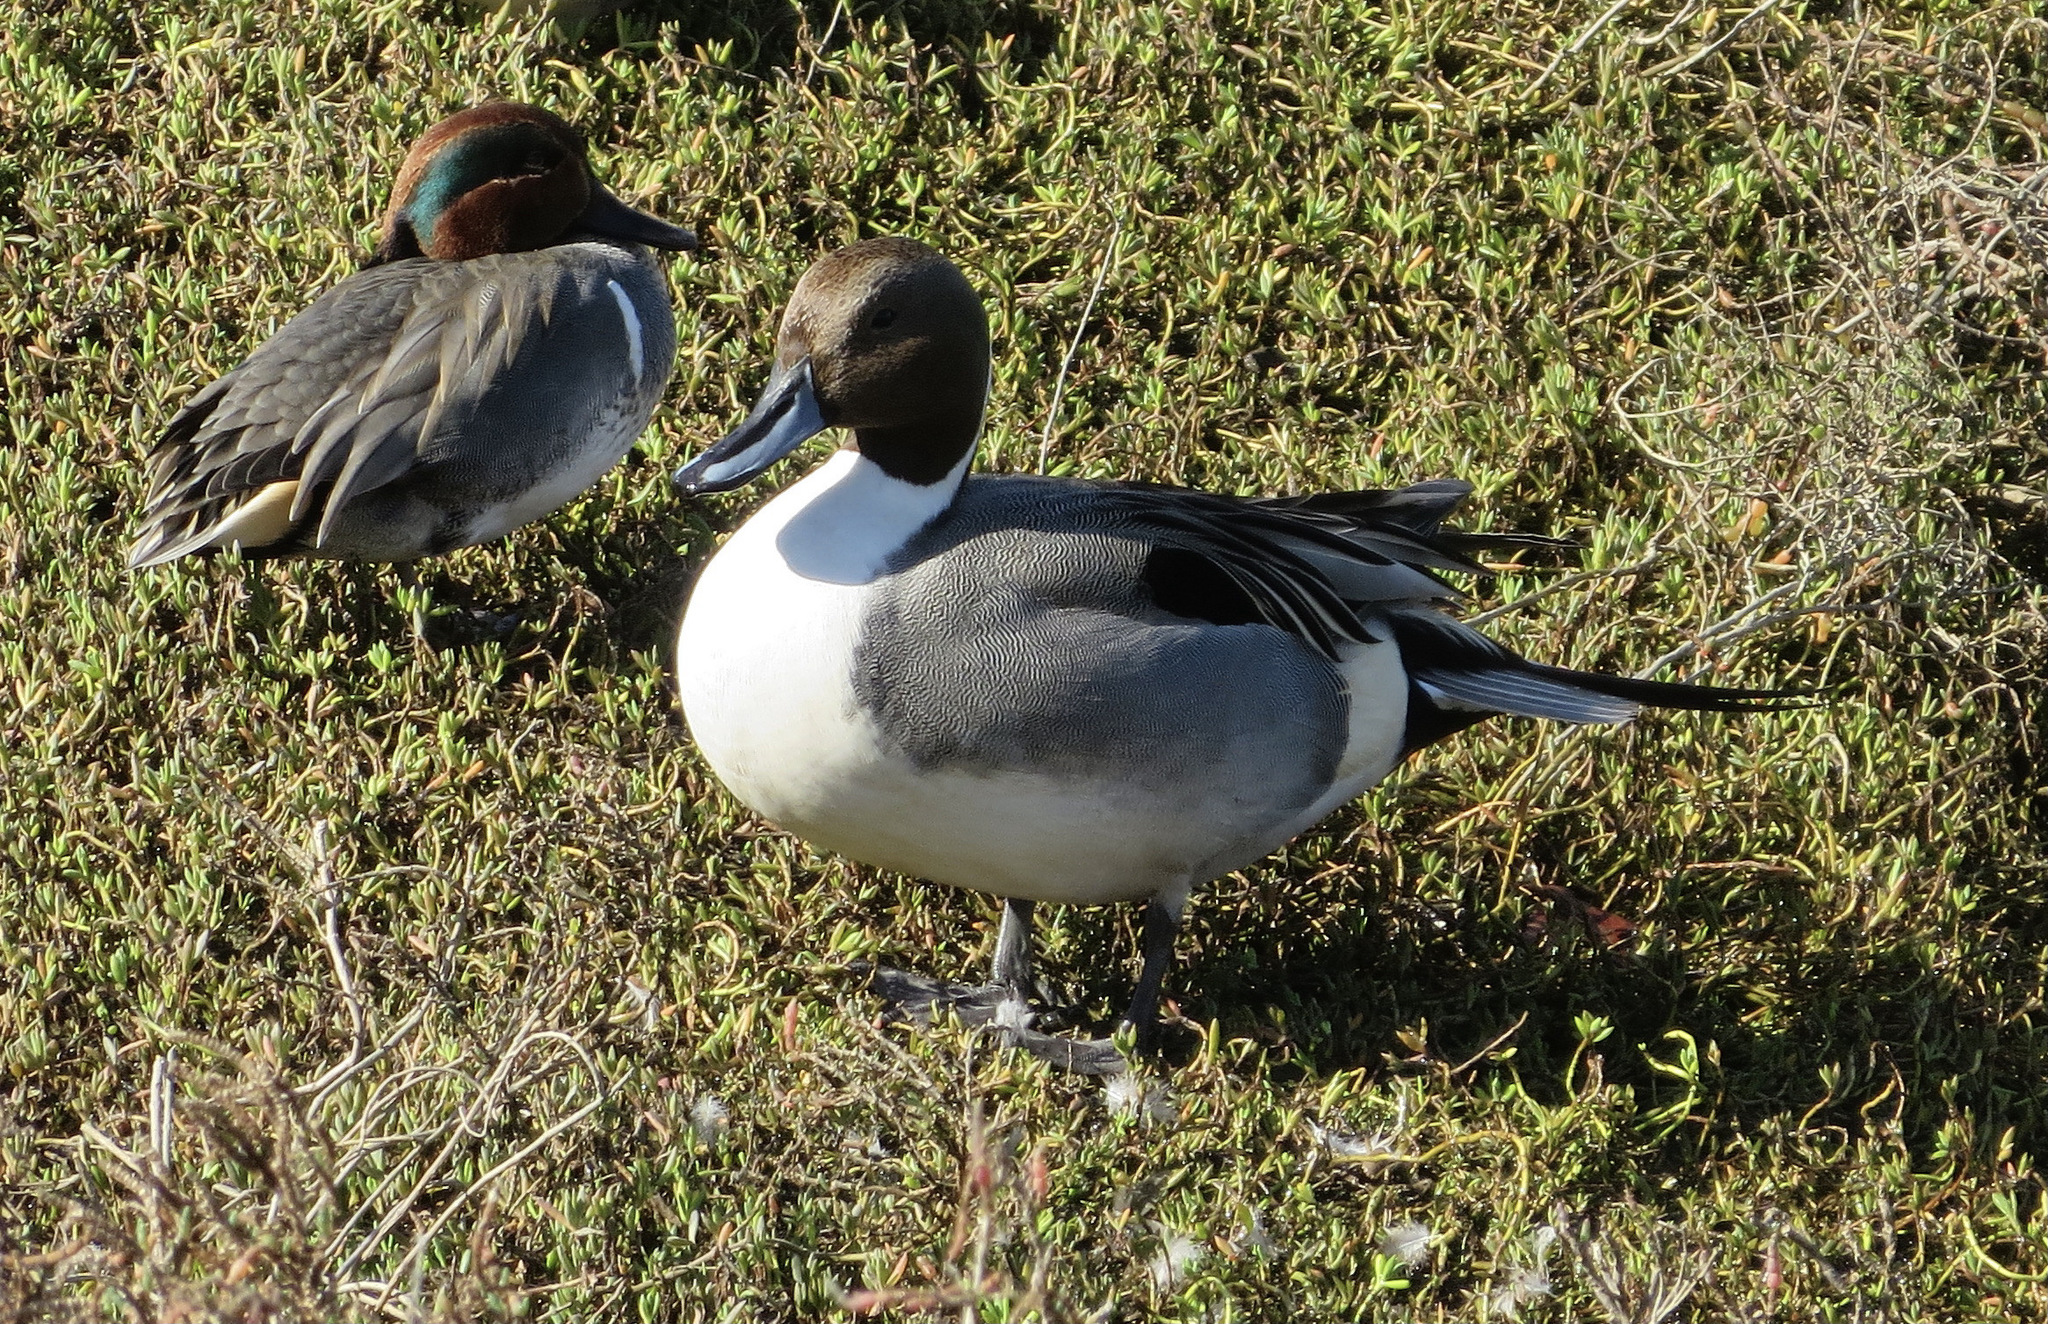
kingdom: Animalia
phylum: Chordata
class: Aves
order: Anseriformes
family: Anatidae
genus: Anas
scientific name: Anas acuta
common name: Northern pintail
